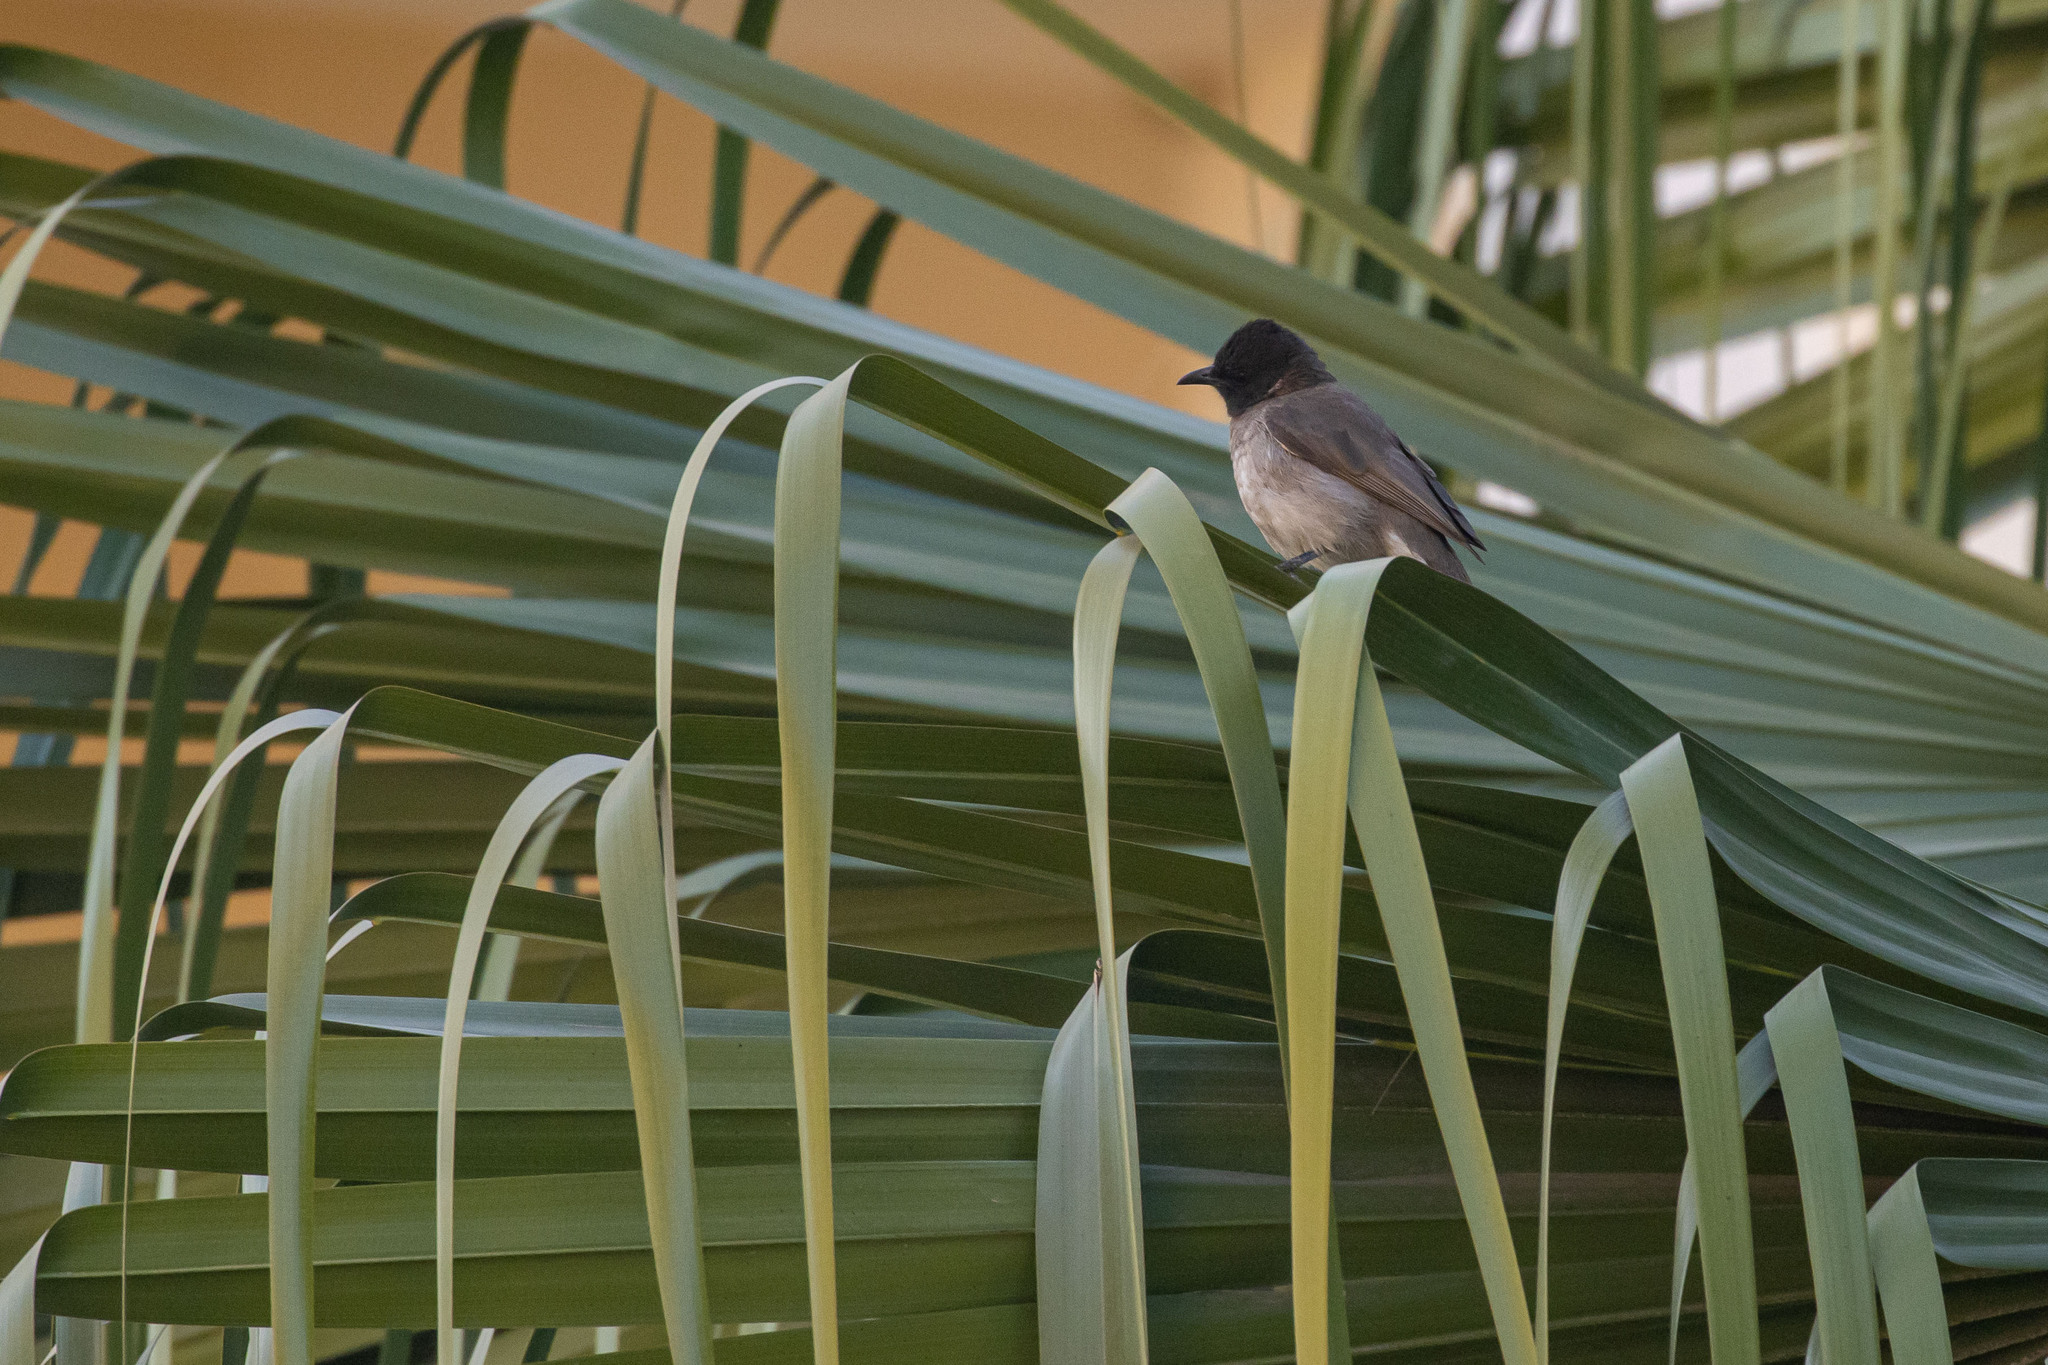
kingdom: Animalia
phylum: Chordata
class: Aves
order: Passeriformes
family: Pycnonotidae
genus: Pycnonotus
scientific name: Pycnonotus barbatus
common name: Common bulbul
